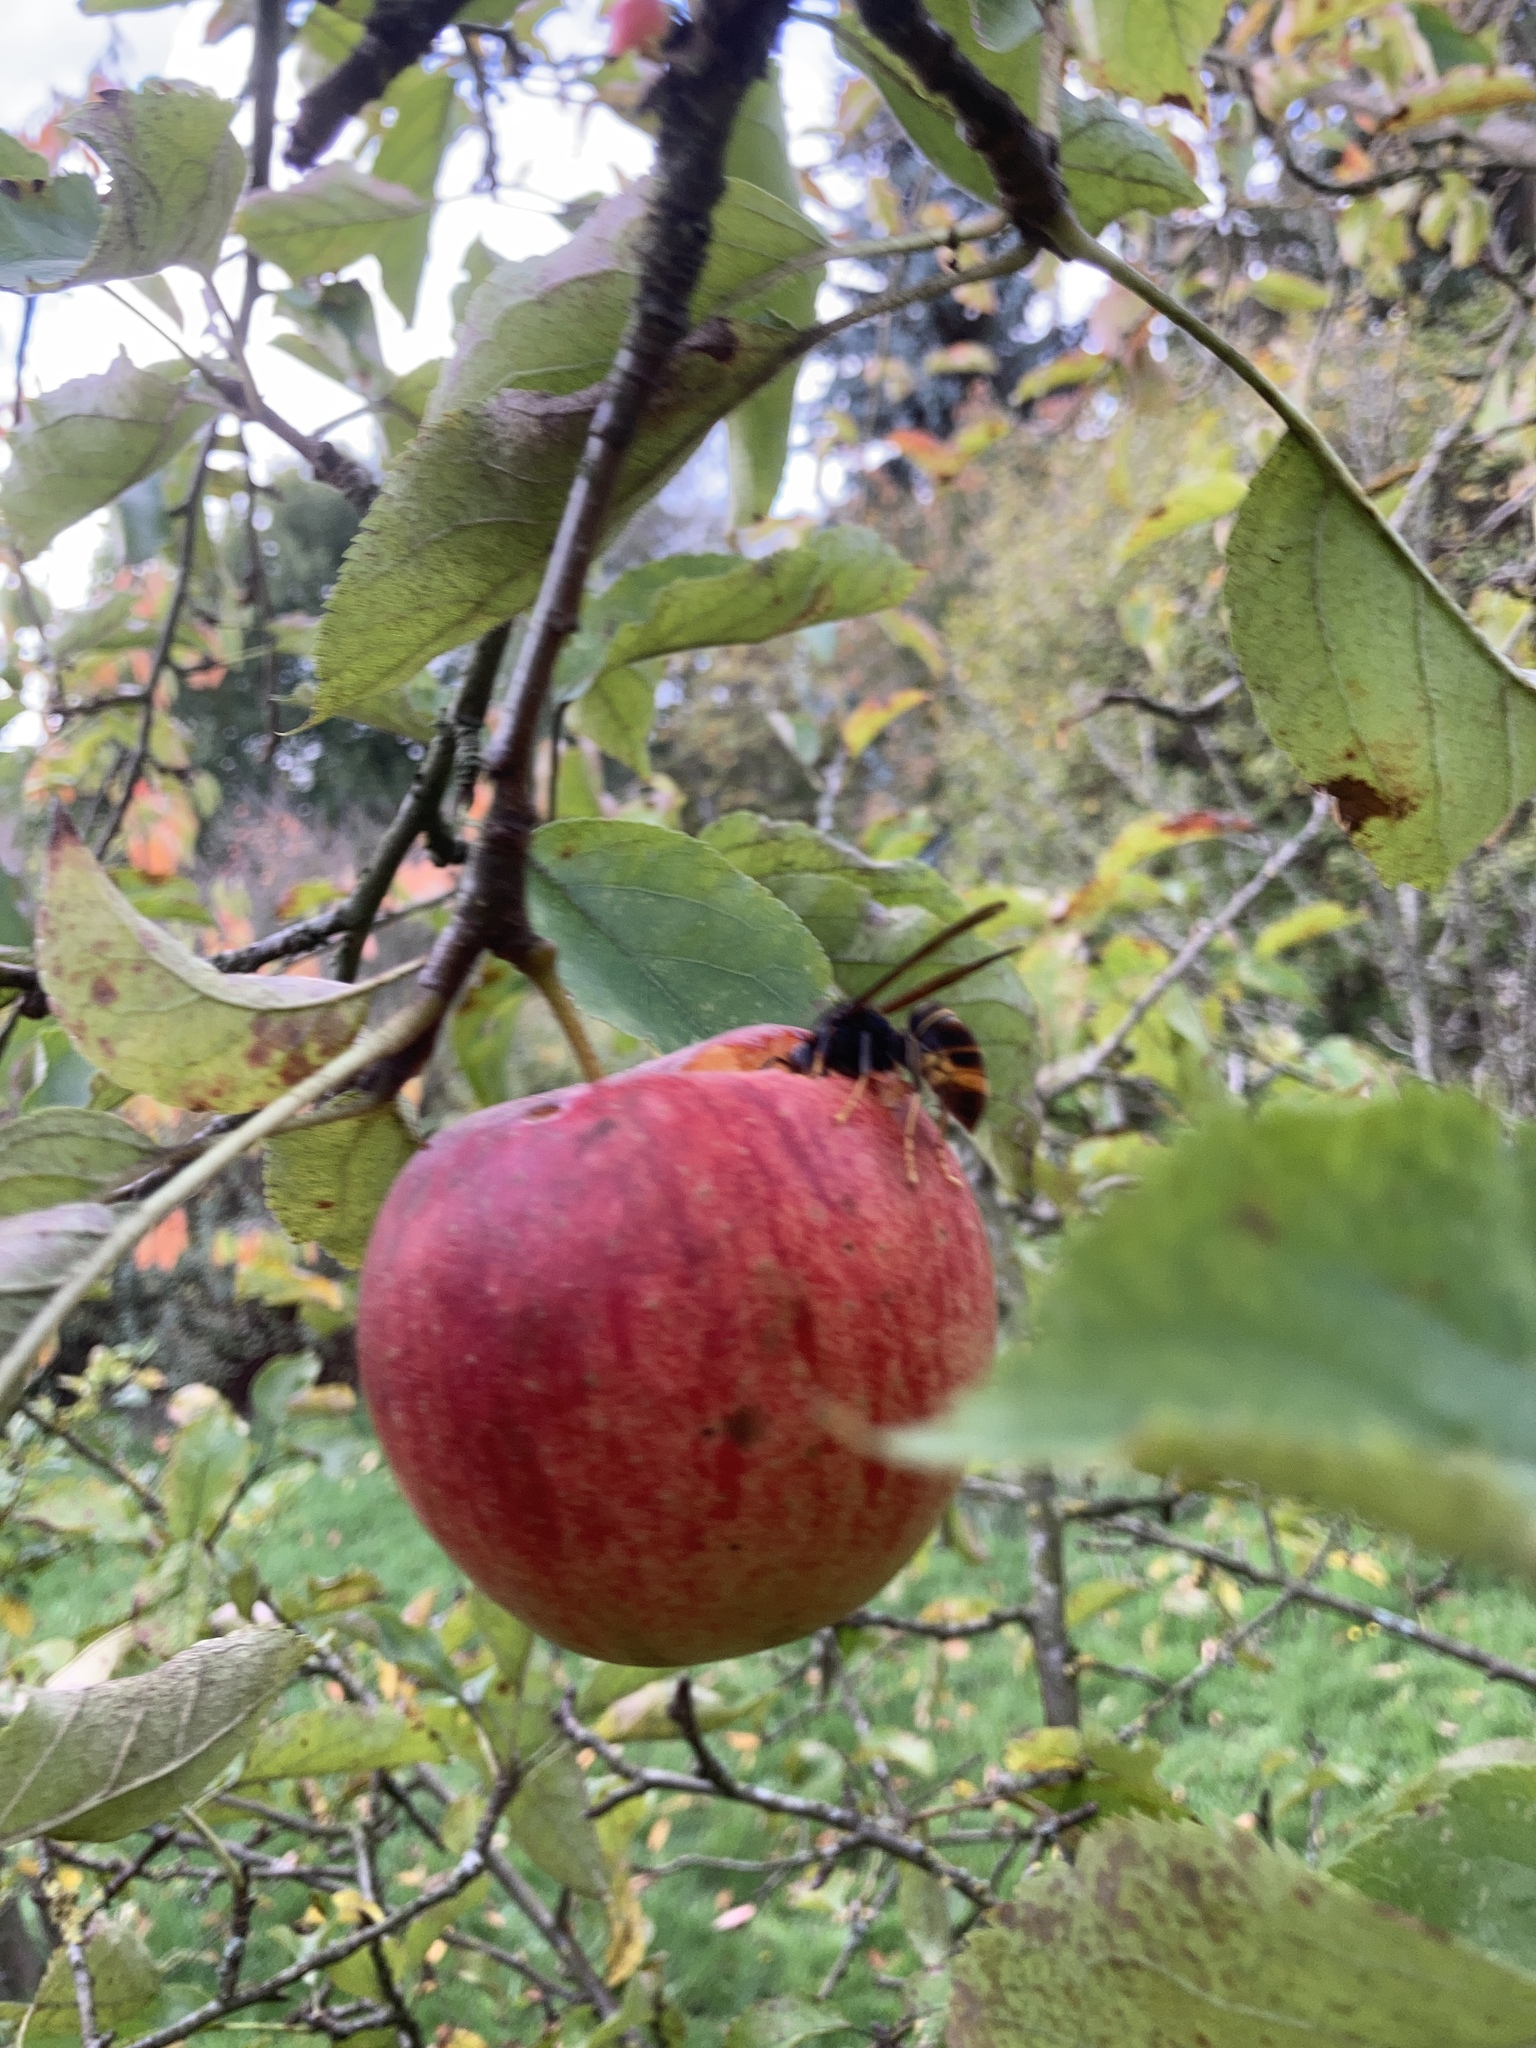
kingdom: Animalia
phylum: Arthropoda
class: Insecta
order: Hymenoptera
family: Vespidae
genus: Vespa
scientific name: Vespa velutina
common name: Asian hornet
